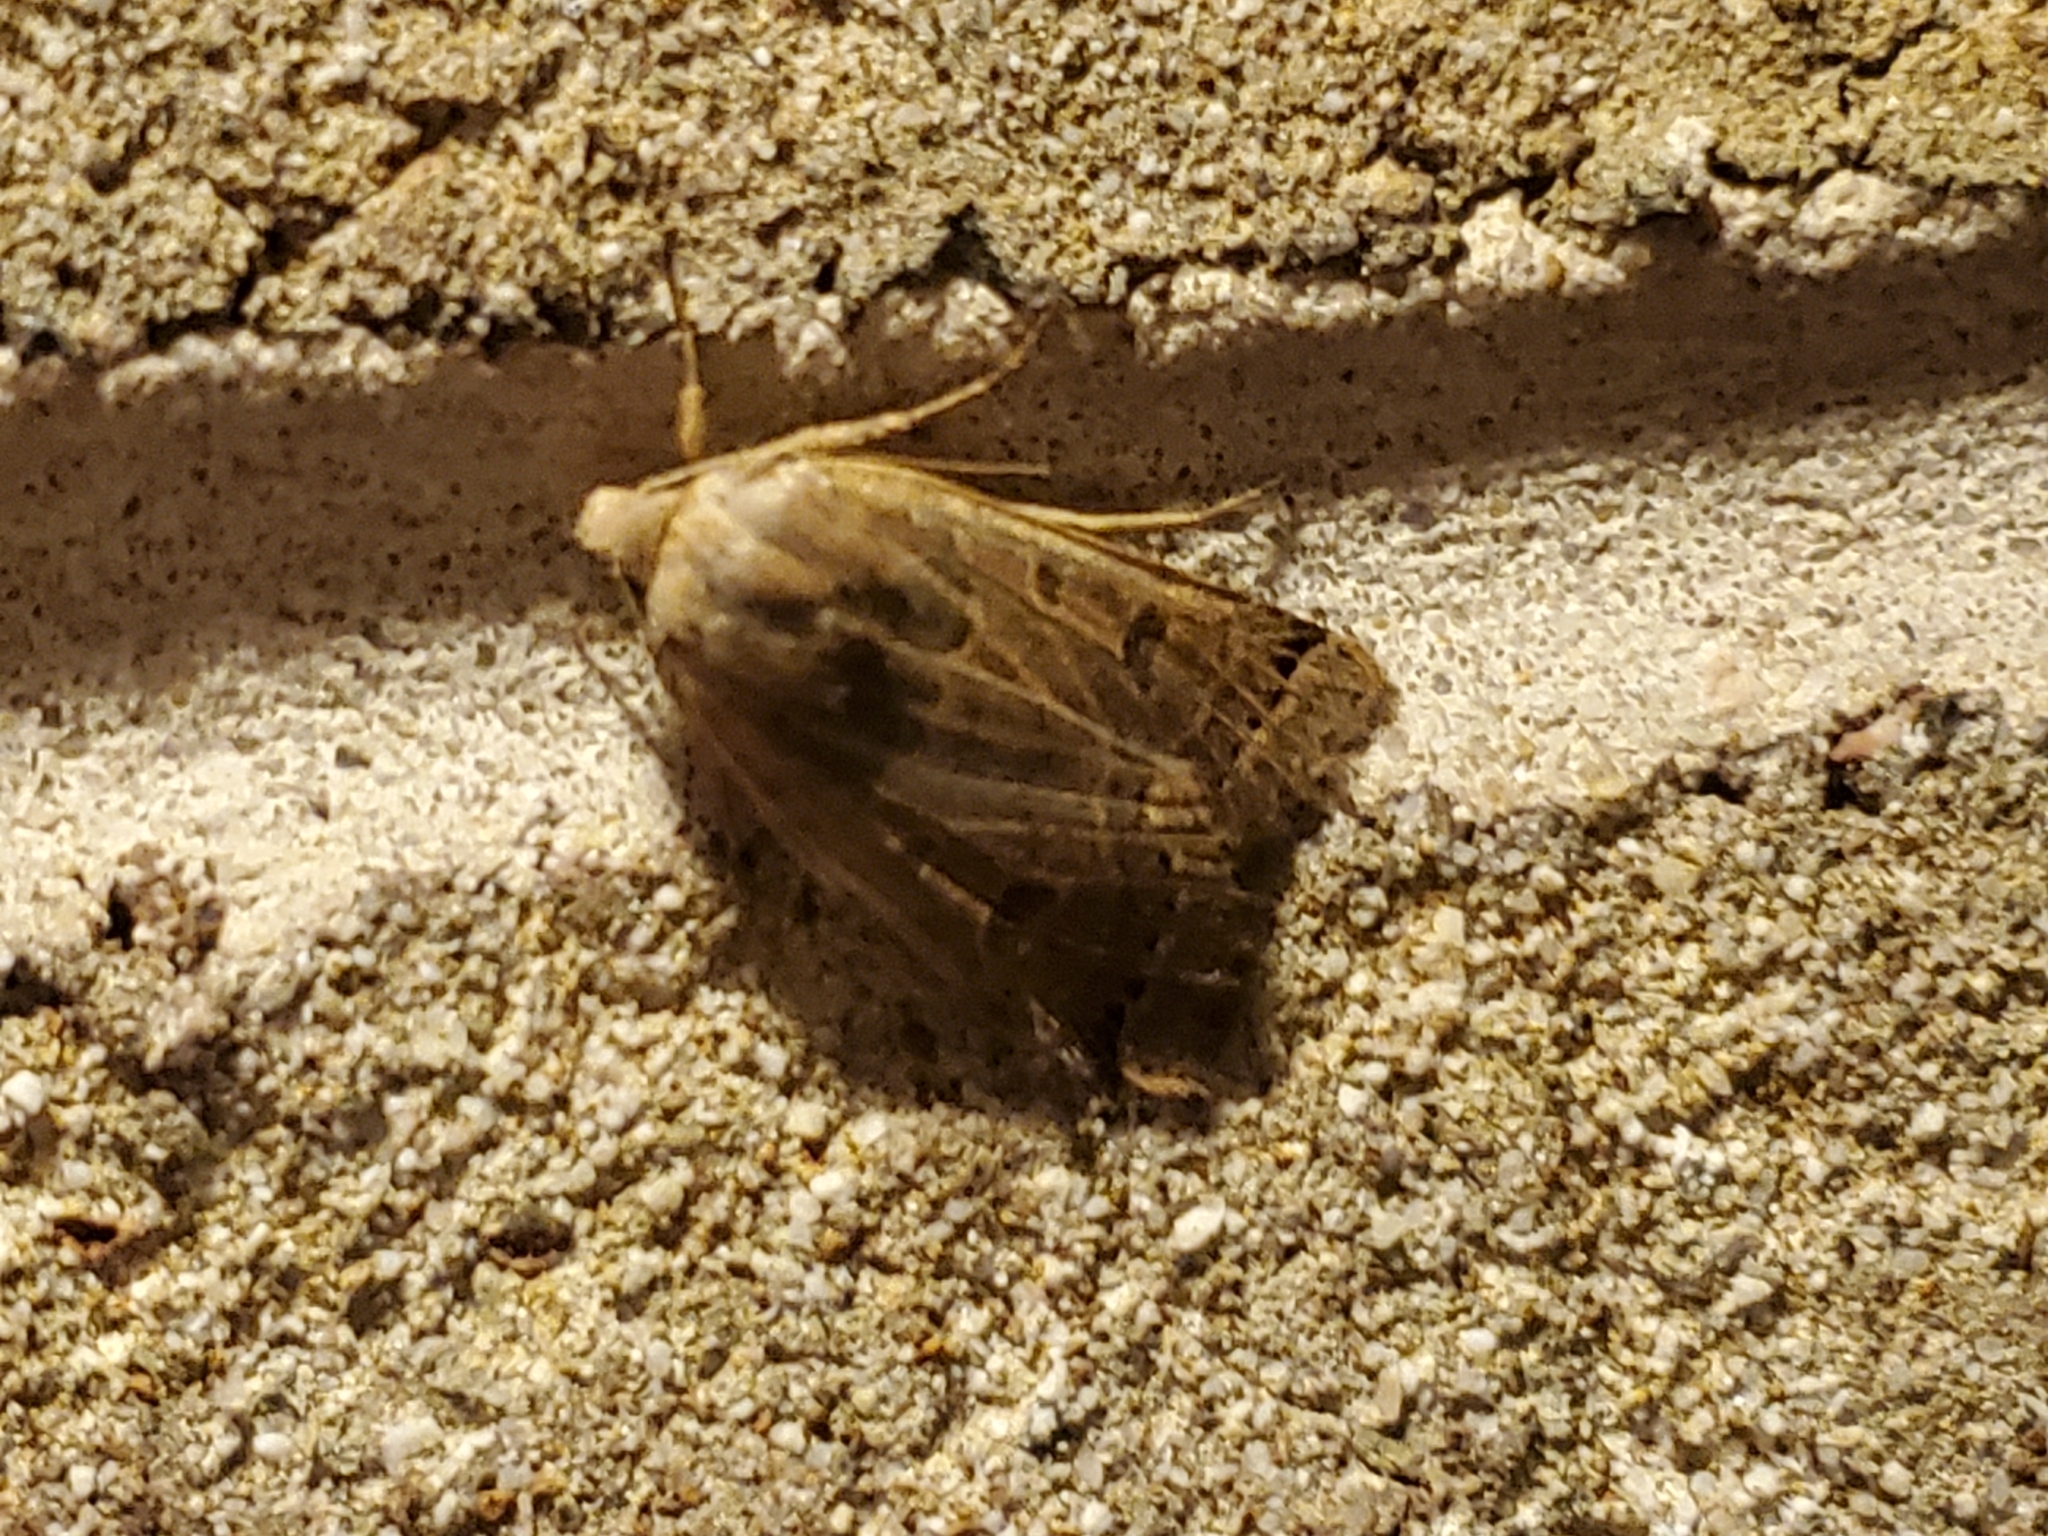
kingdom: Animalia
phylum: Arthropoda
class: Insecta
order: Lepidoptera
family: Noctuidae
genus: Agrochola
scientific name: Agrochola lunosa
